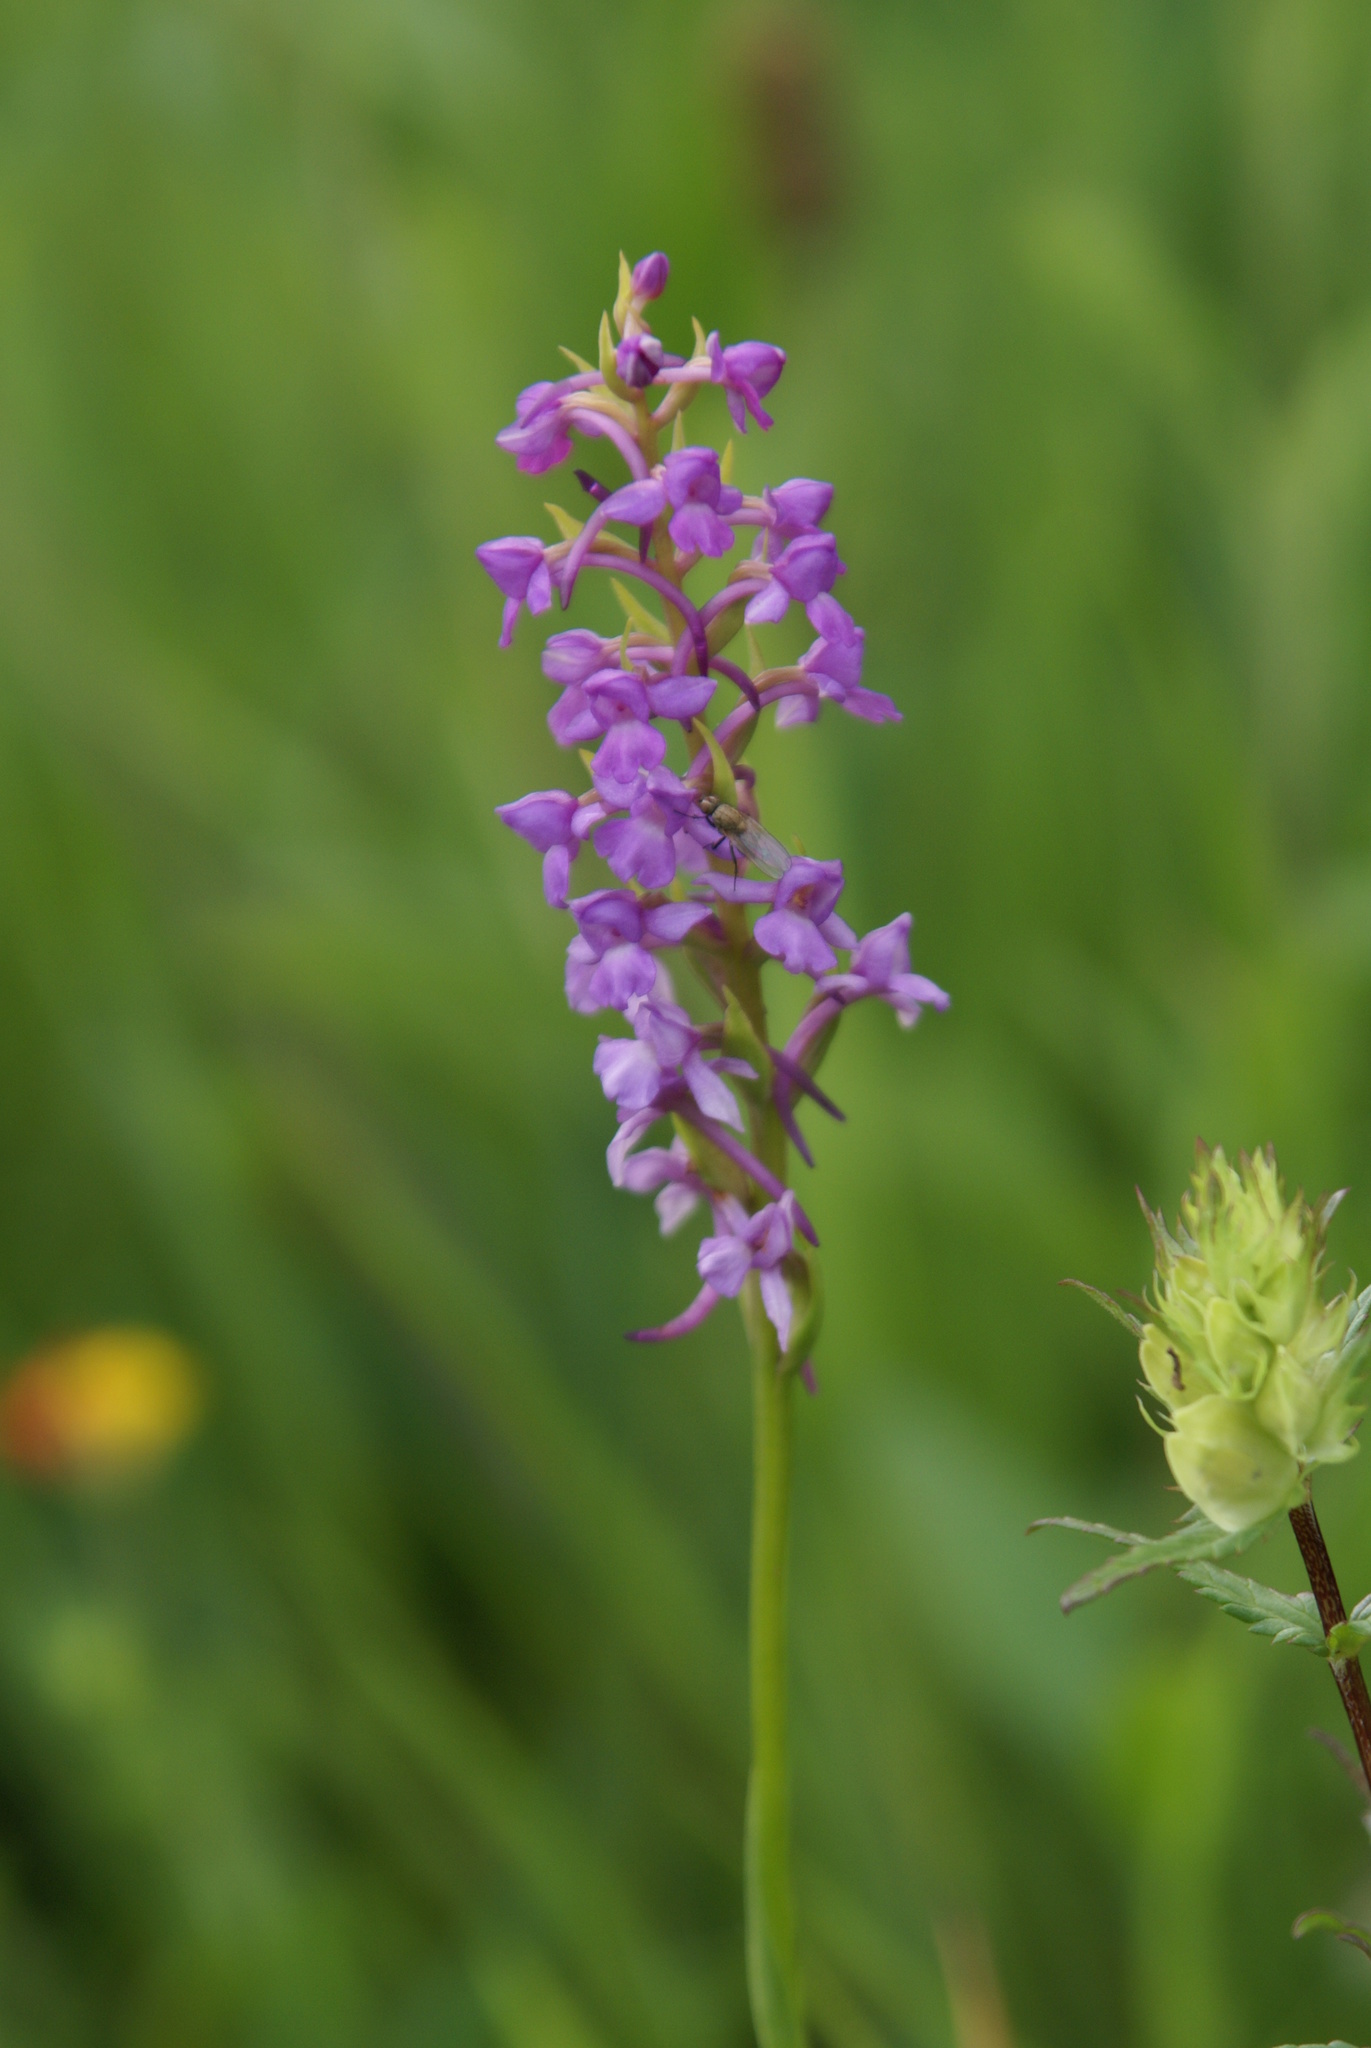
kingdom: Plantae
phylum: Tracheophyta
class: Liliopsida
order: Asparagales
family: Orchidaceae
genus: Gymnadenia
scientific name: Gymnadenia conopsea
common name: Fragrant orchid
